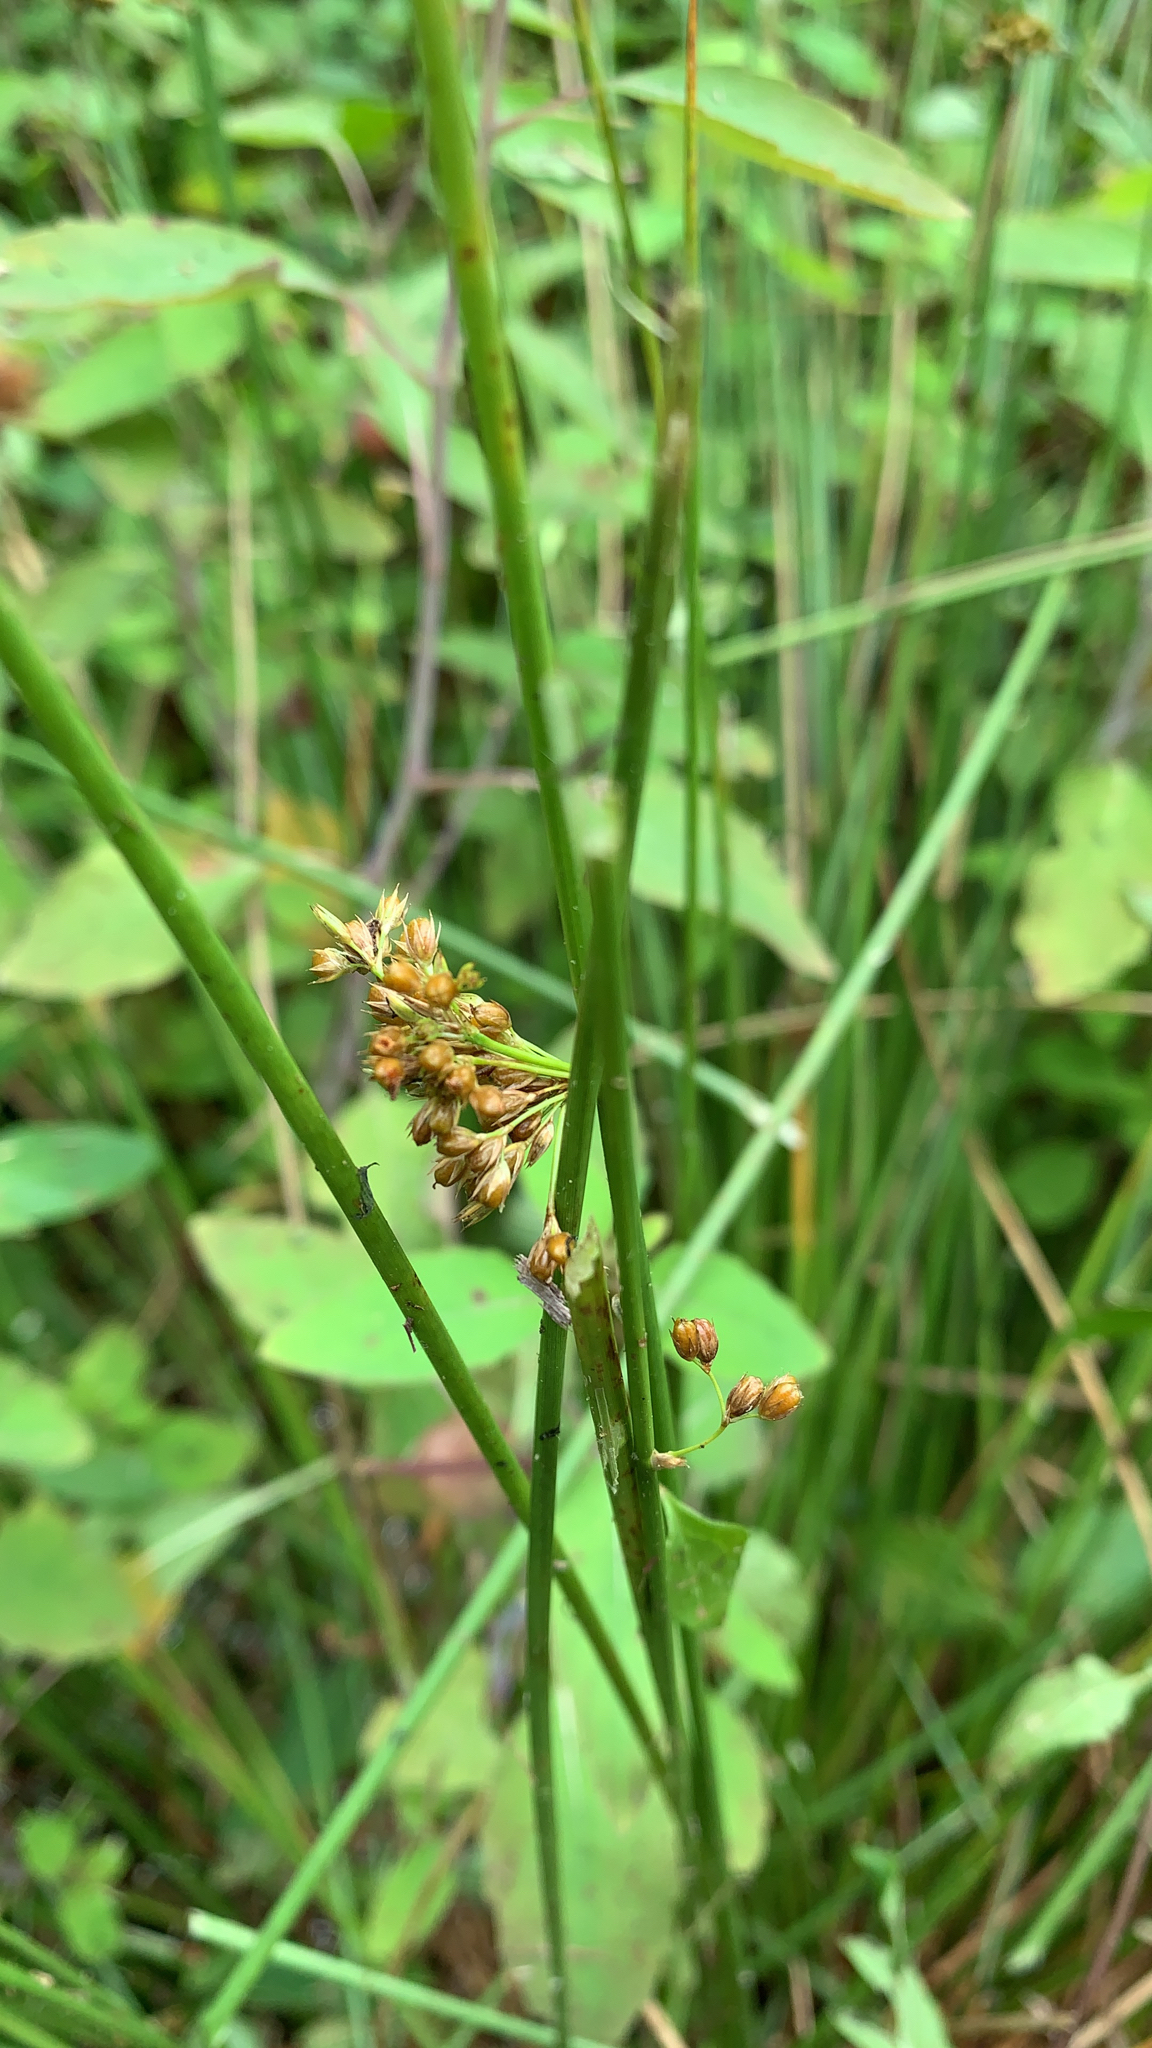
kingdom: Plantae
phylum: Tracheophyta
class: Liliopsida
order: Poales
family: Juncaceae
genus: Juncus
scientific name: Juncus effusus
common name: Soft rush
